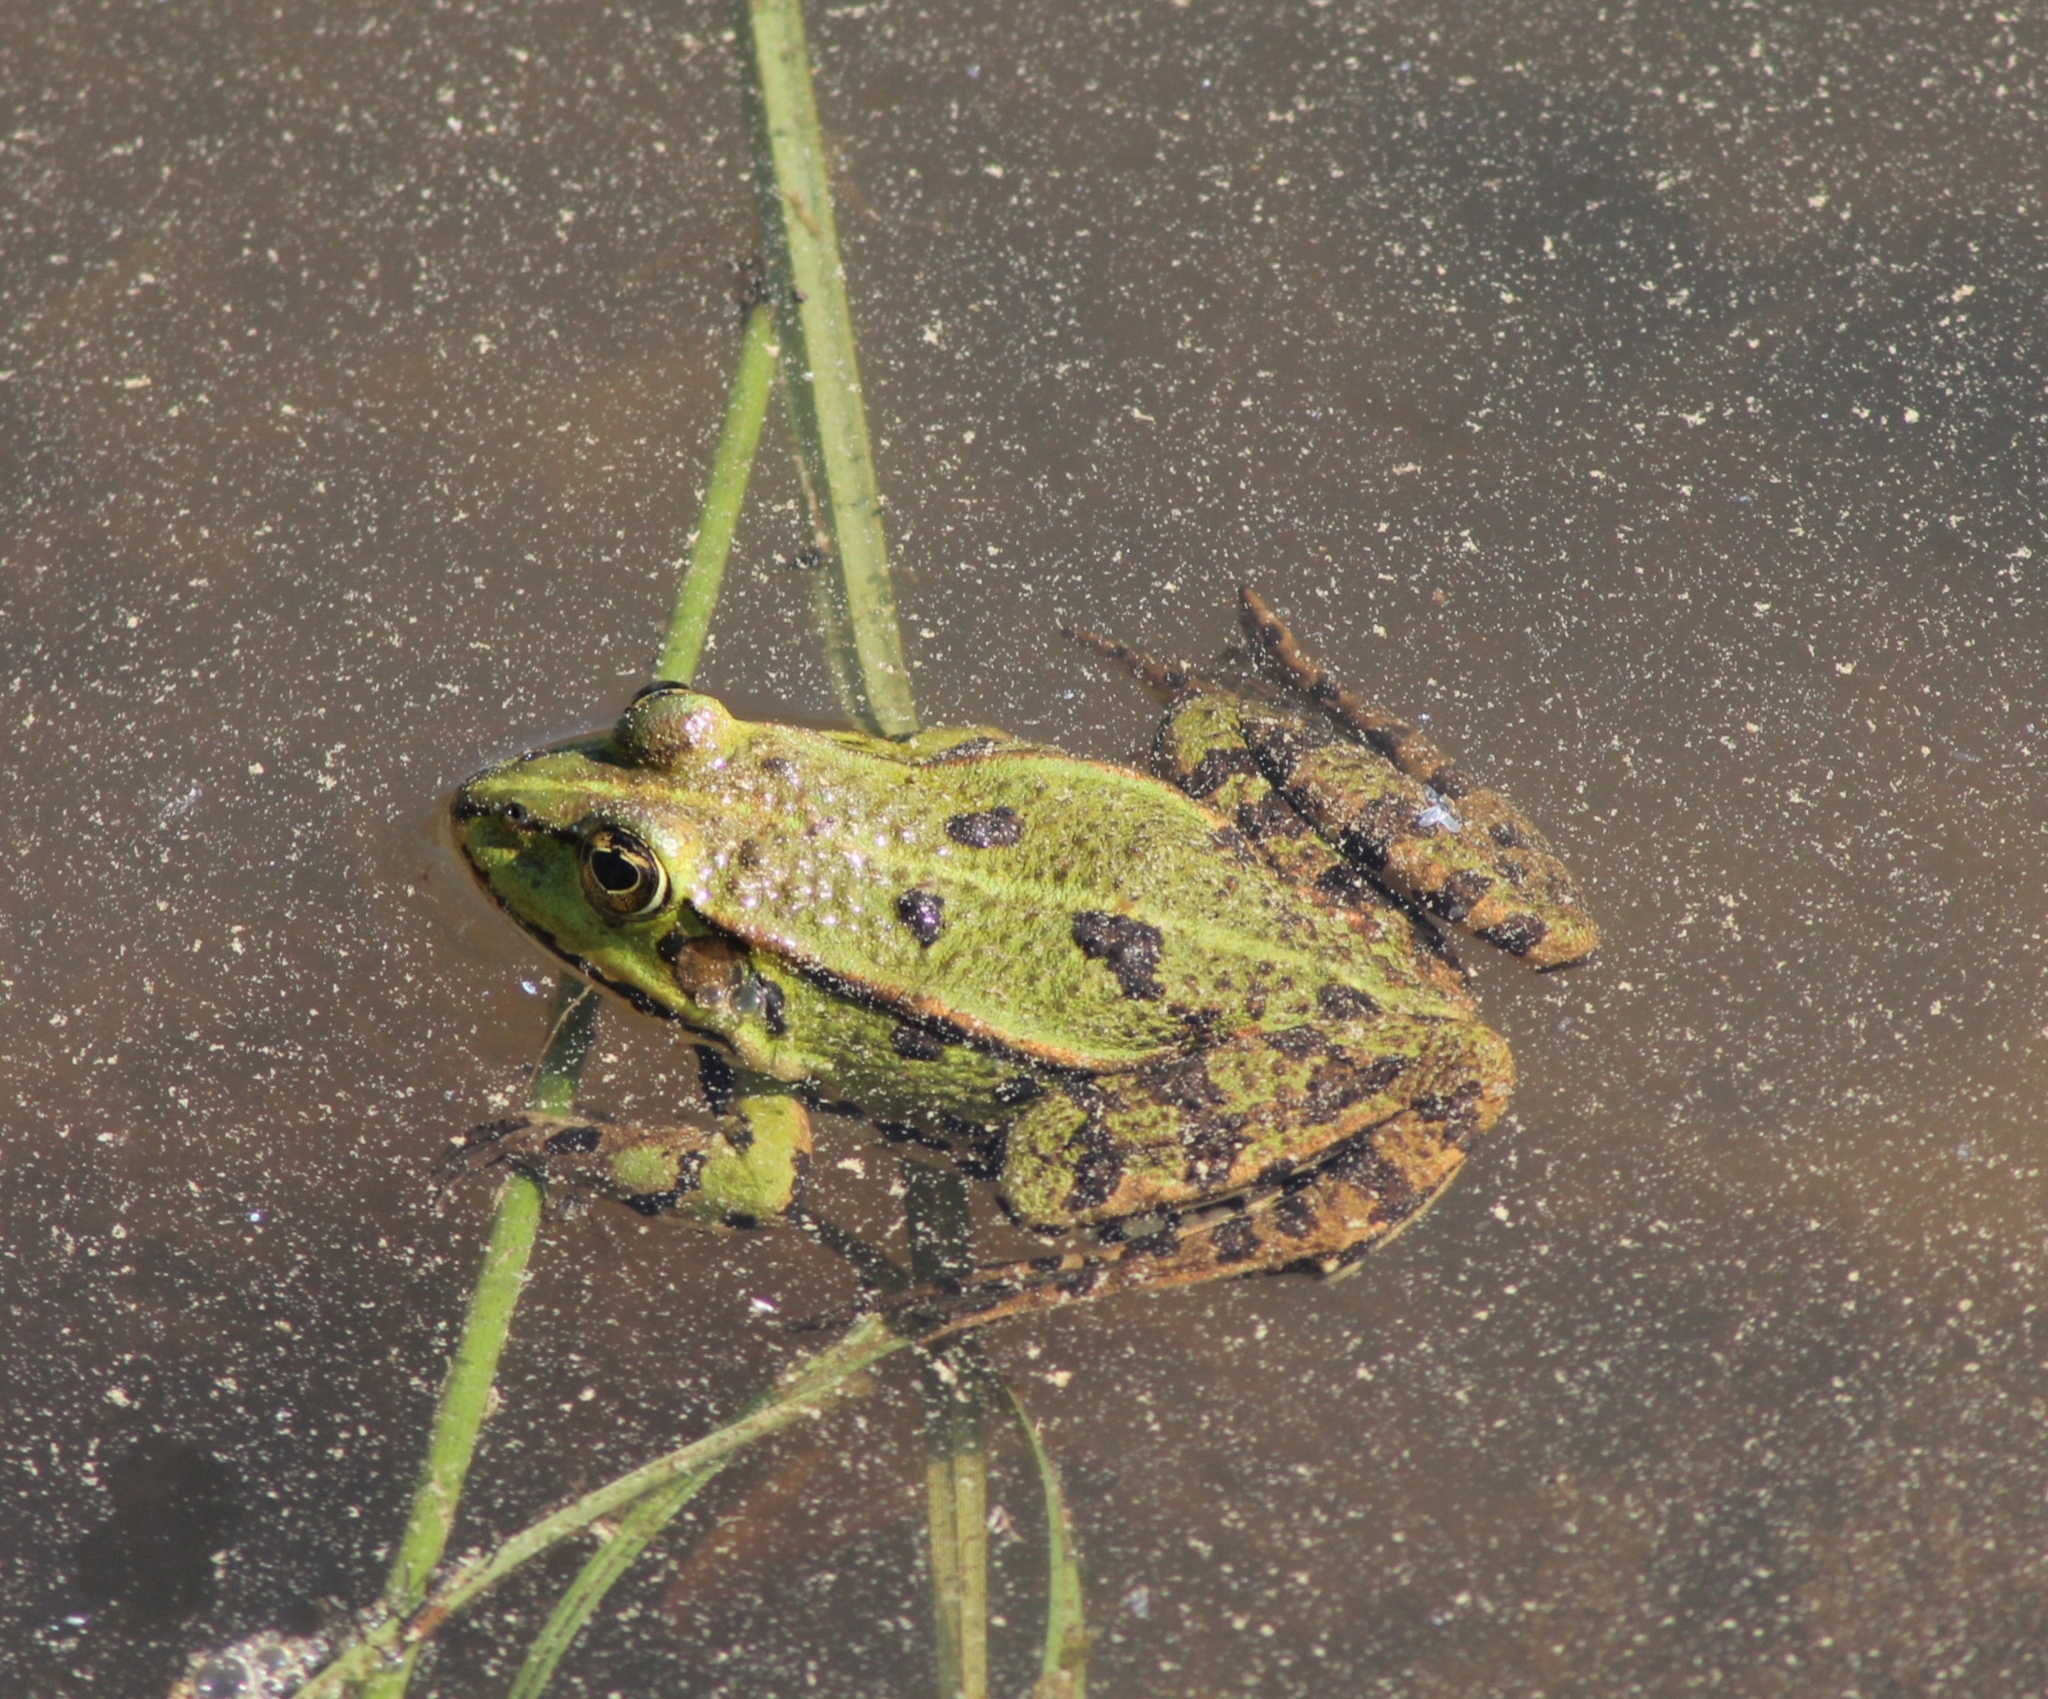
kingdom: Animalia
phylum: Chordata
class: Amphibia
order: Anura
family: Ranidae
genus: Pelophylax
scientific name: Pelophylax
